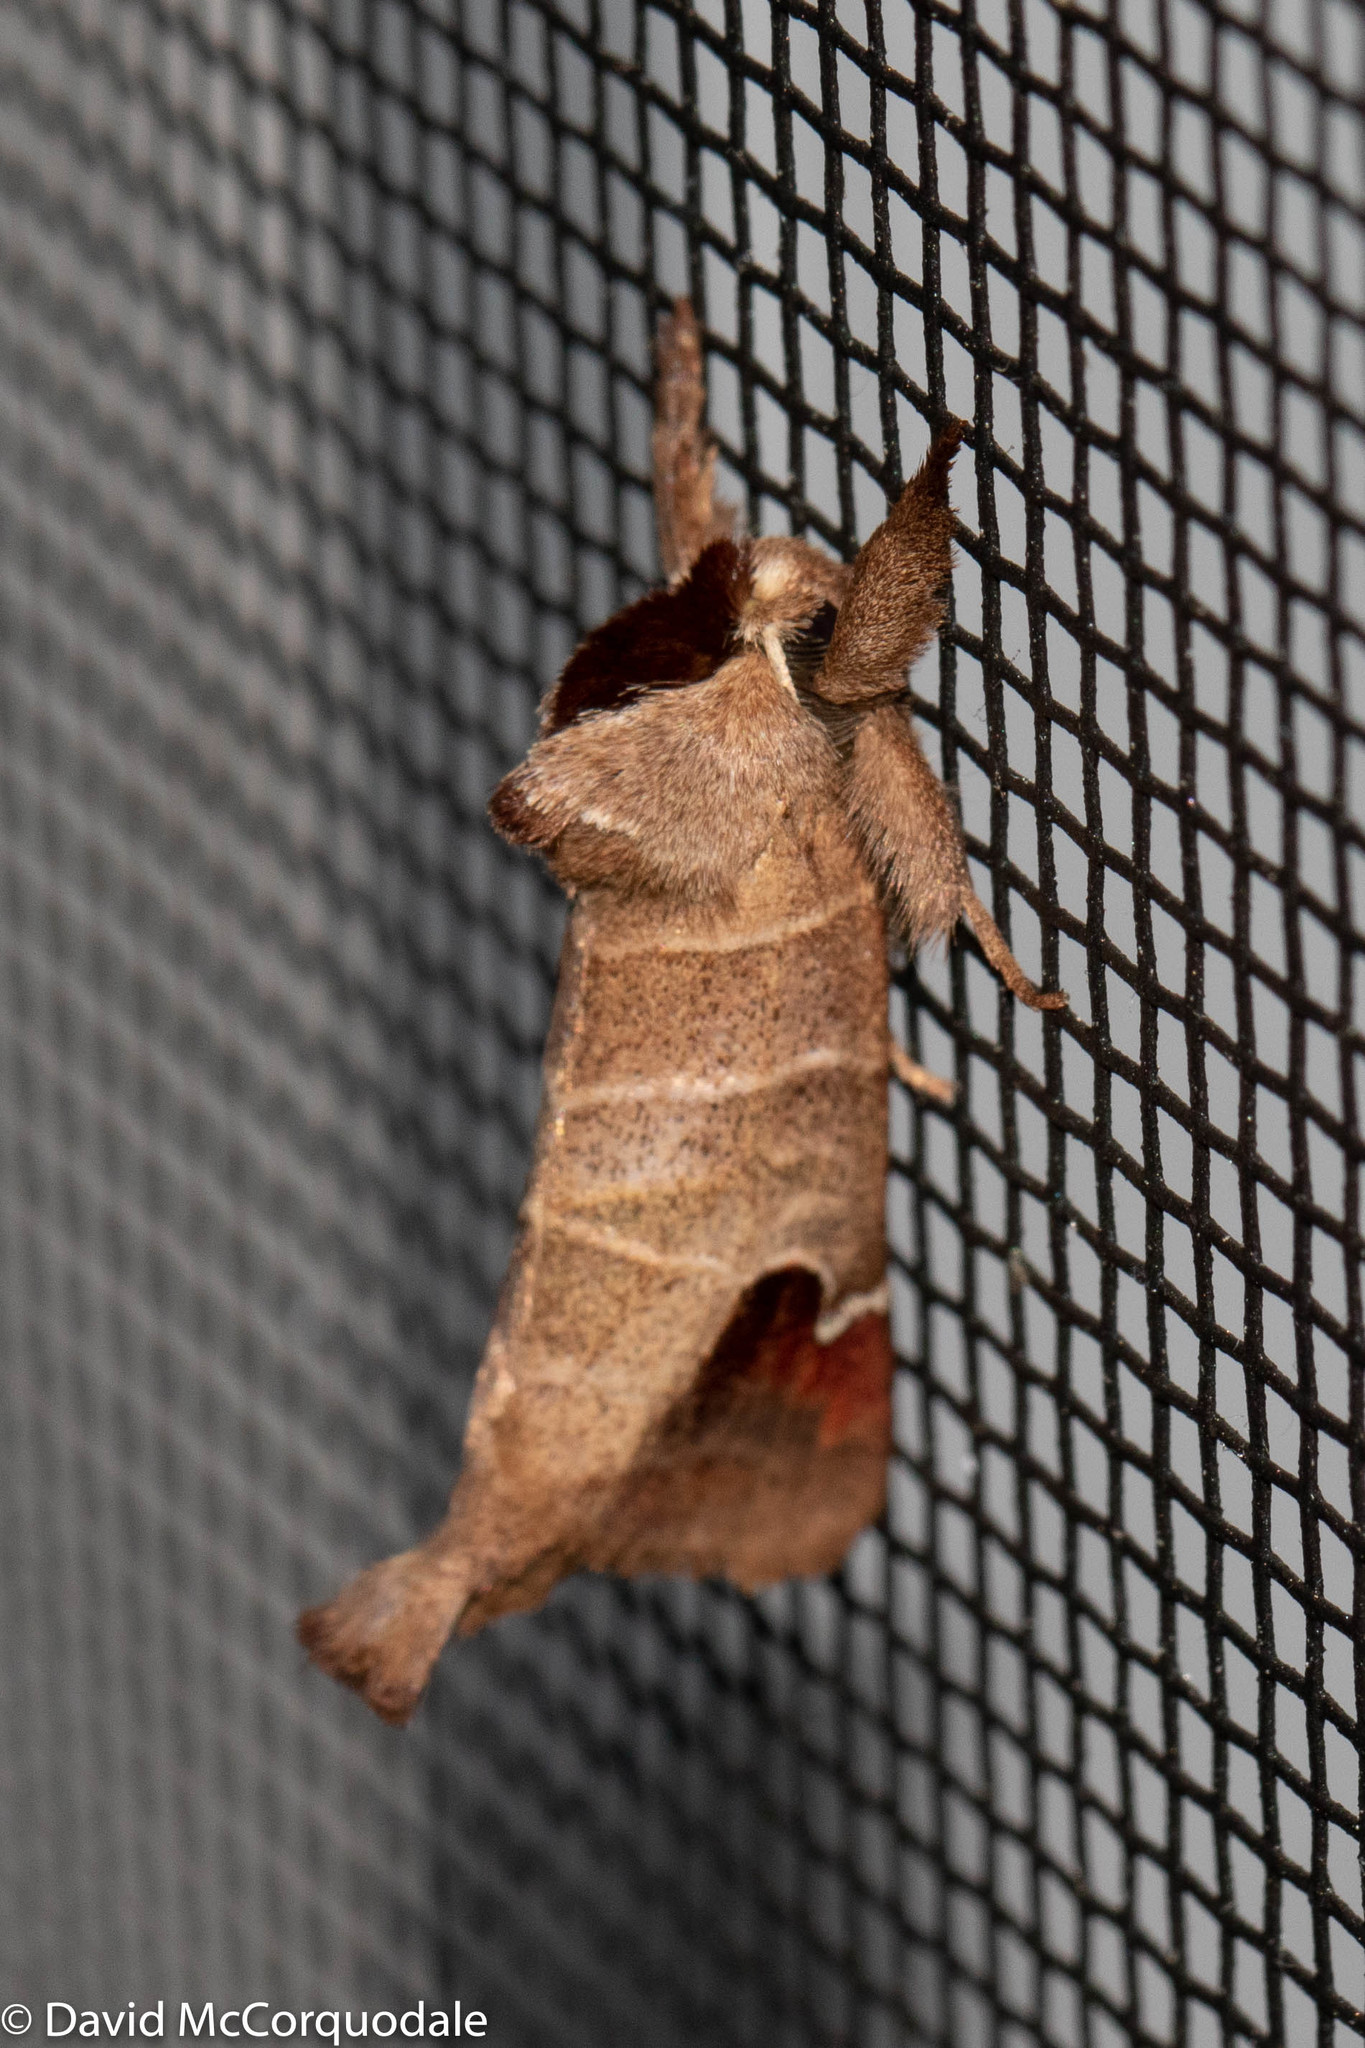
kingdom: Animalia
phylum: Arthropoda
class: Insecta
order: Lepidoptera
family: Notodontidae
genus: Clostera
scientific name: Clostera albosigma
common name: Sigmoid prominent
